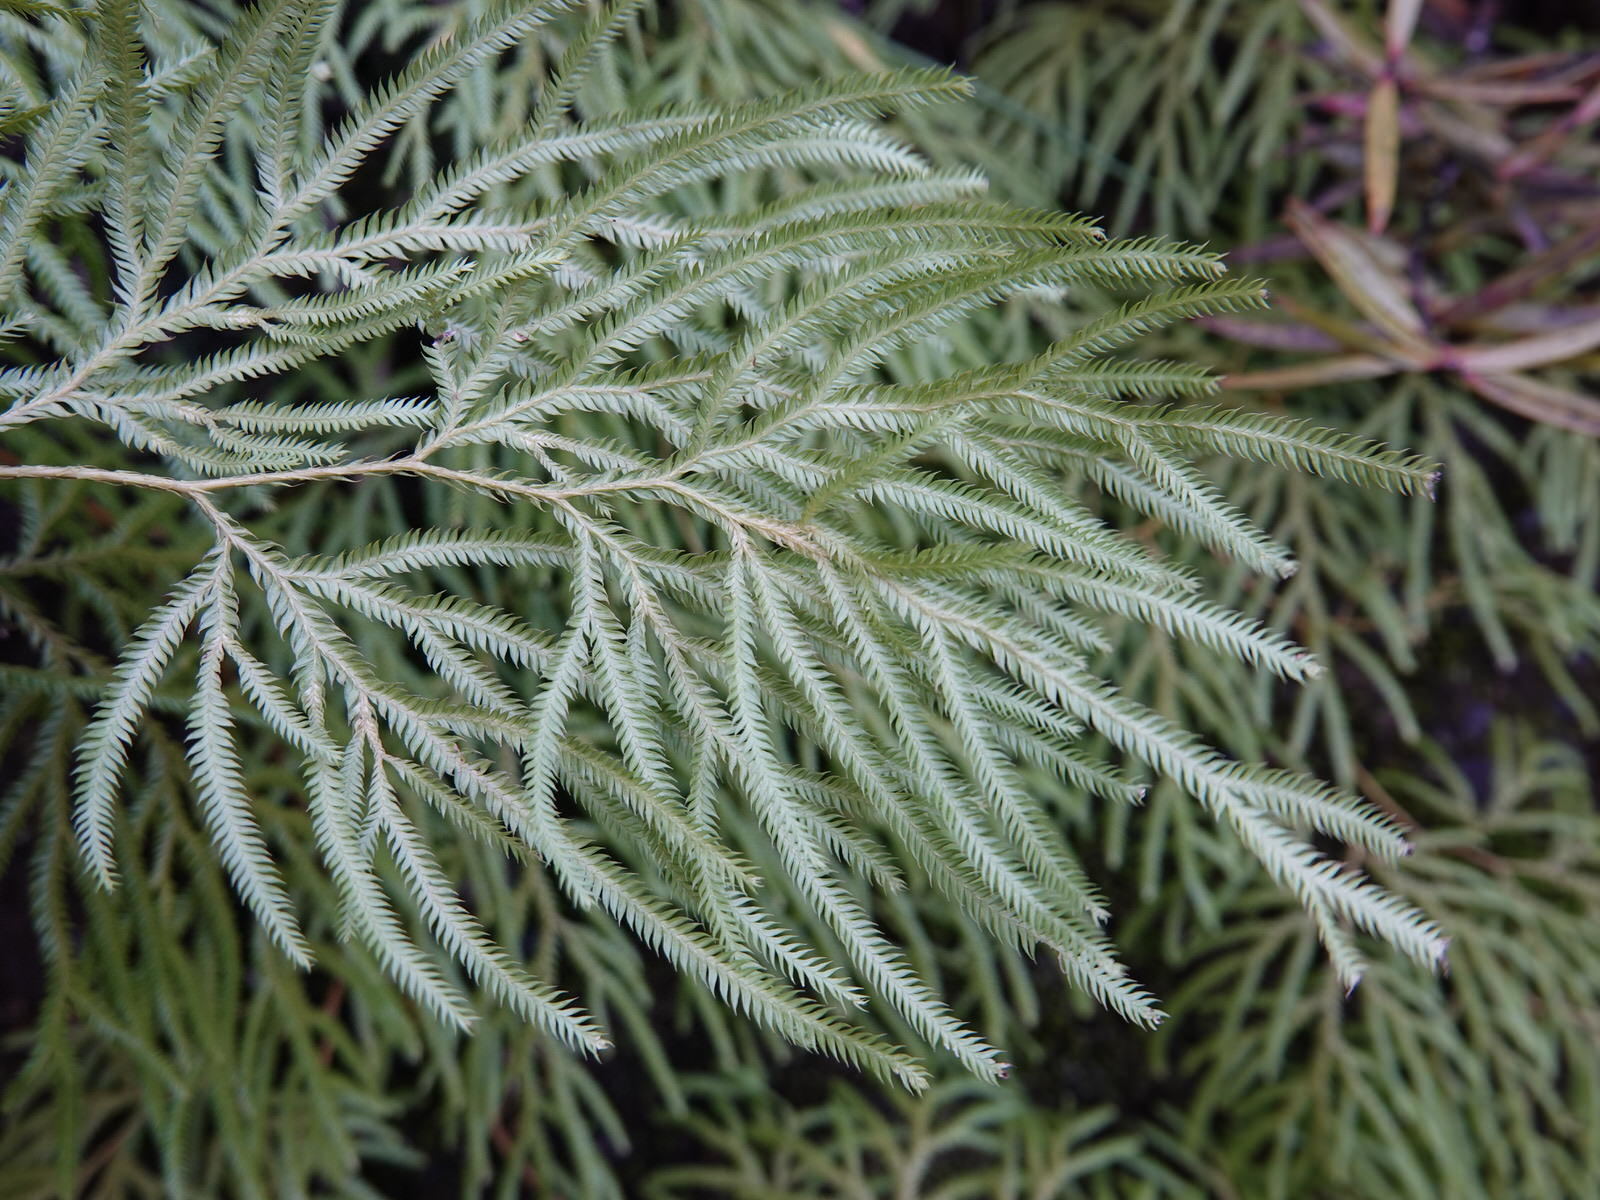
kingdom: Plantae
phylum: Tracheophyta
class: Lycopodiopsida
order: Lycopodiales
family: Lycopodiaceae
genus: Lycopodium
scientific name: Lycopodium volubile
